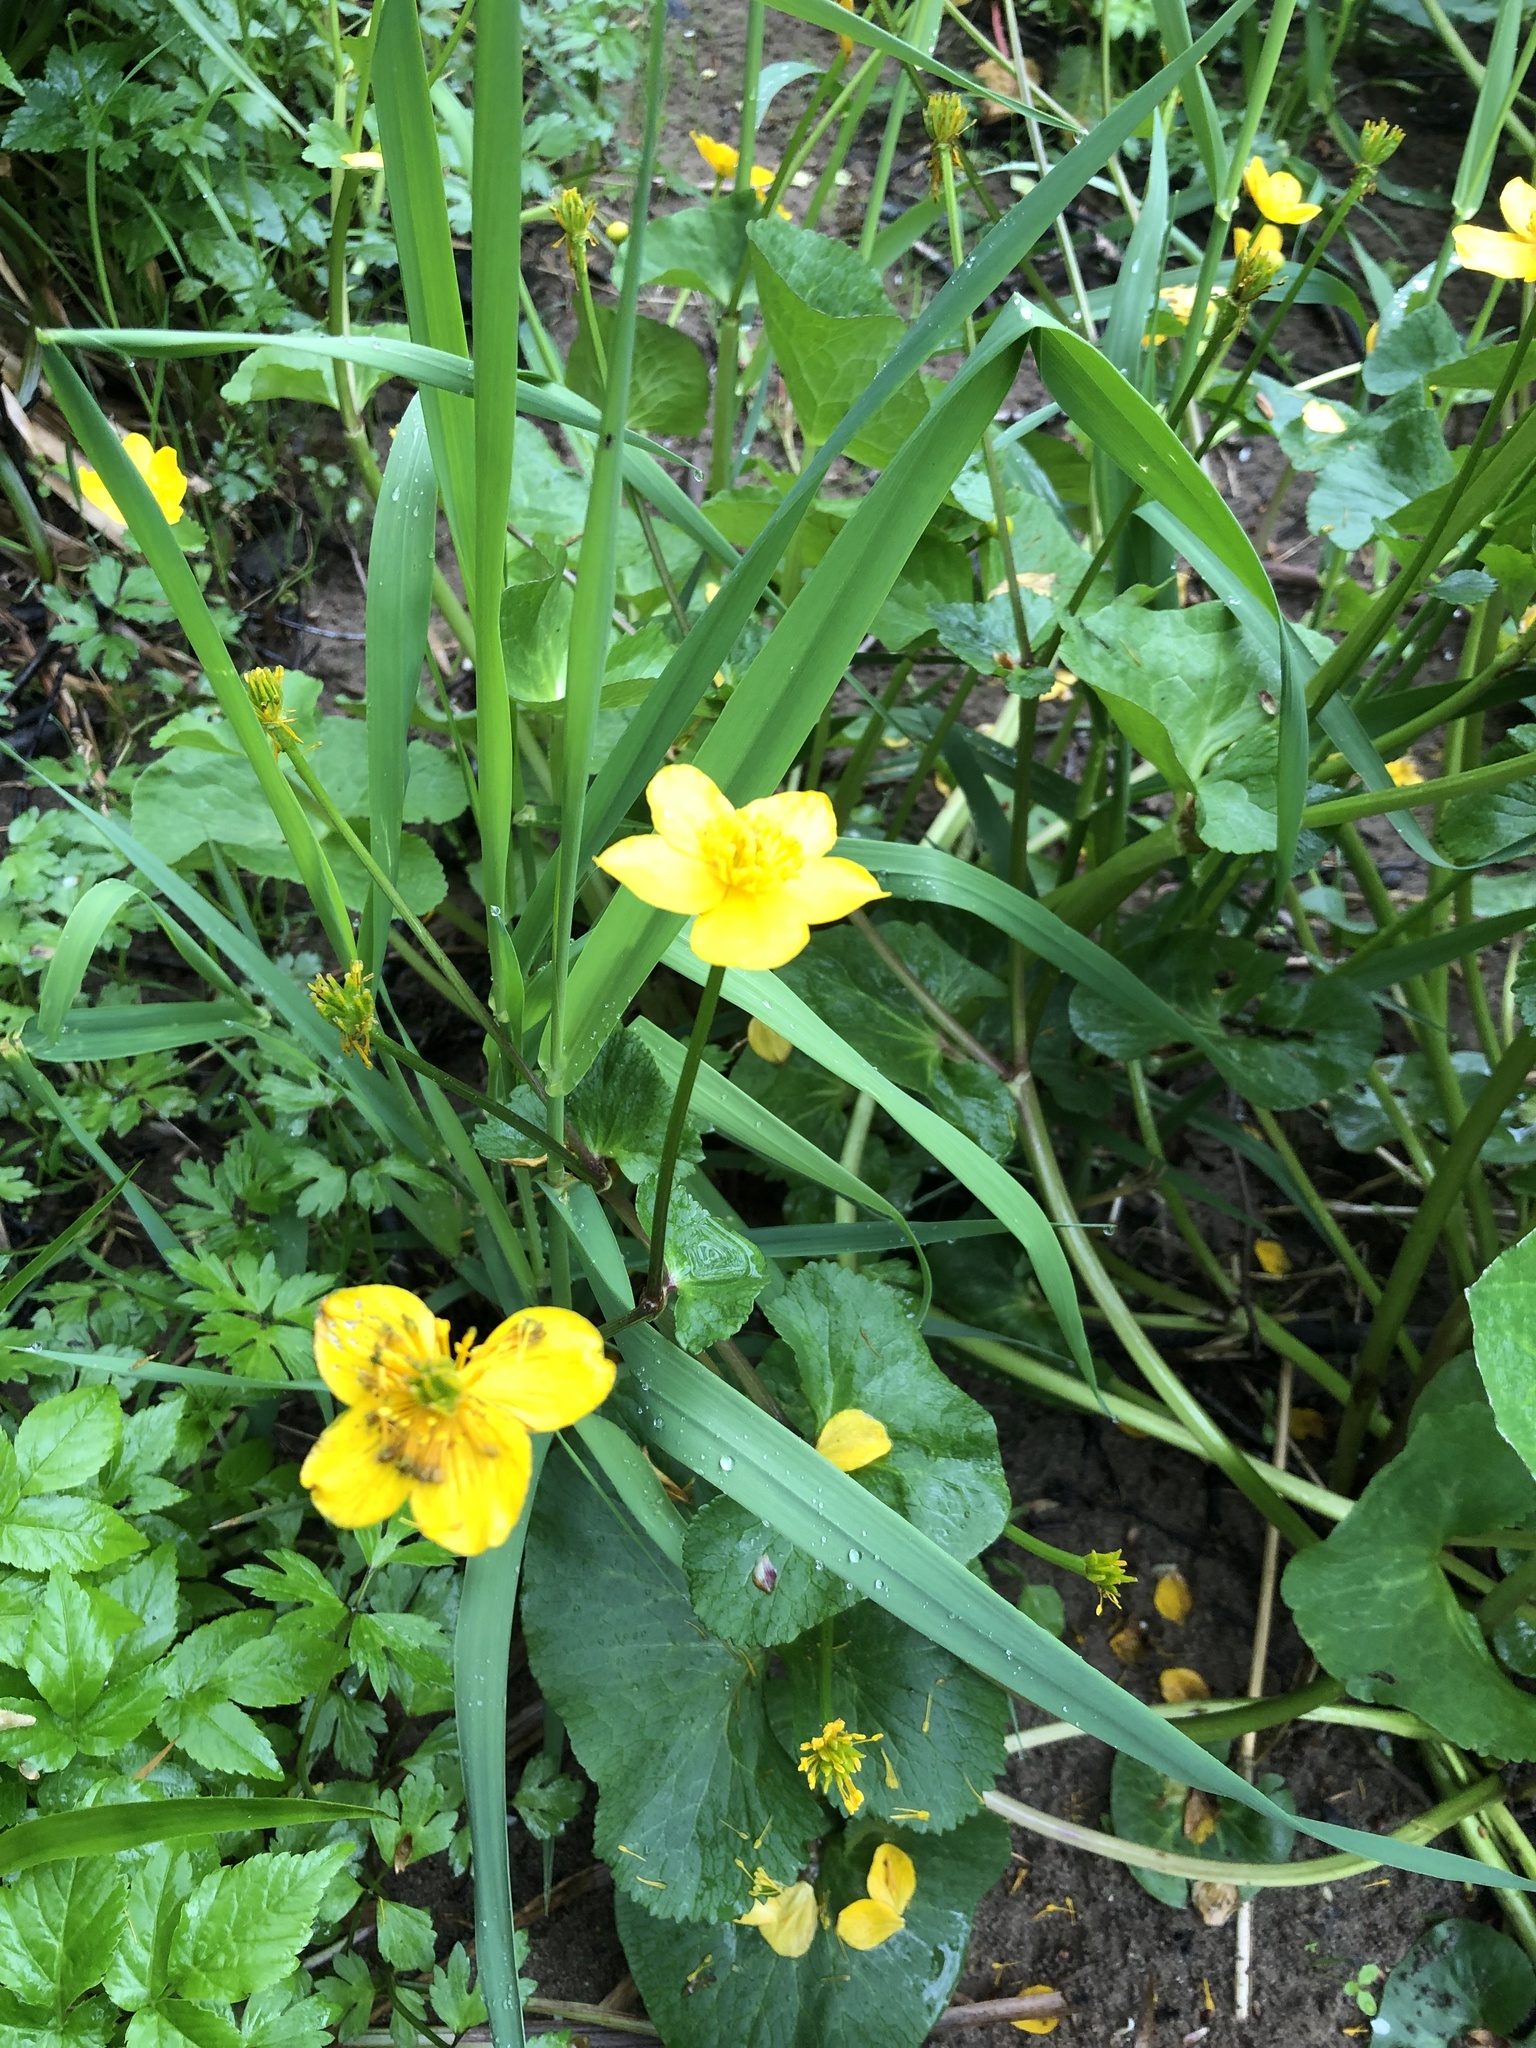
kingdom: Plantae
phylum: Tracheophyta
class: Magnoliopsida
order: Ranunculales
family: Ranunculaceae
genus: Caltha
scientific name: Caltha palustris
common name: Marsh marigold
